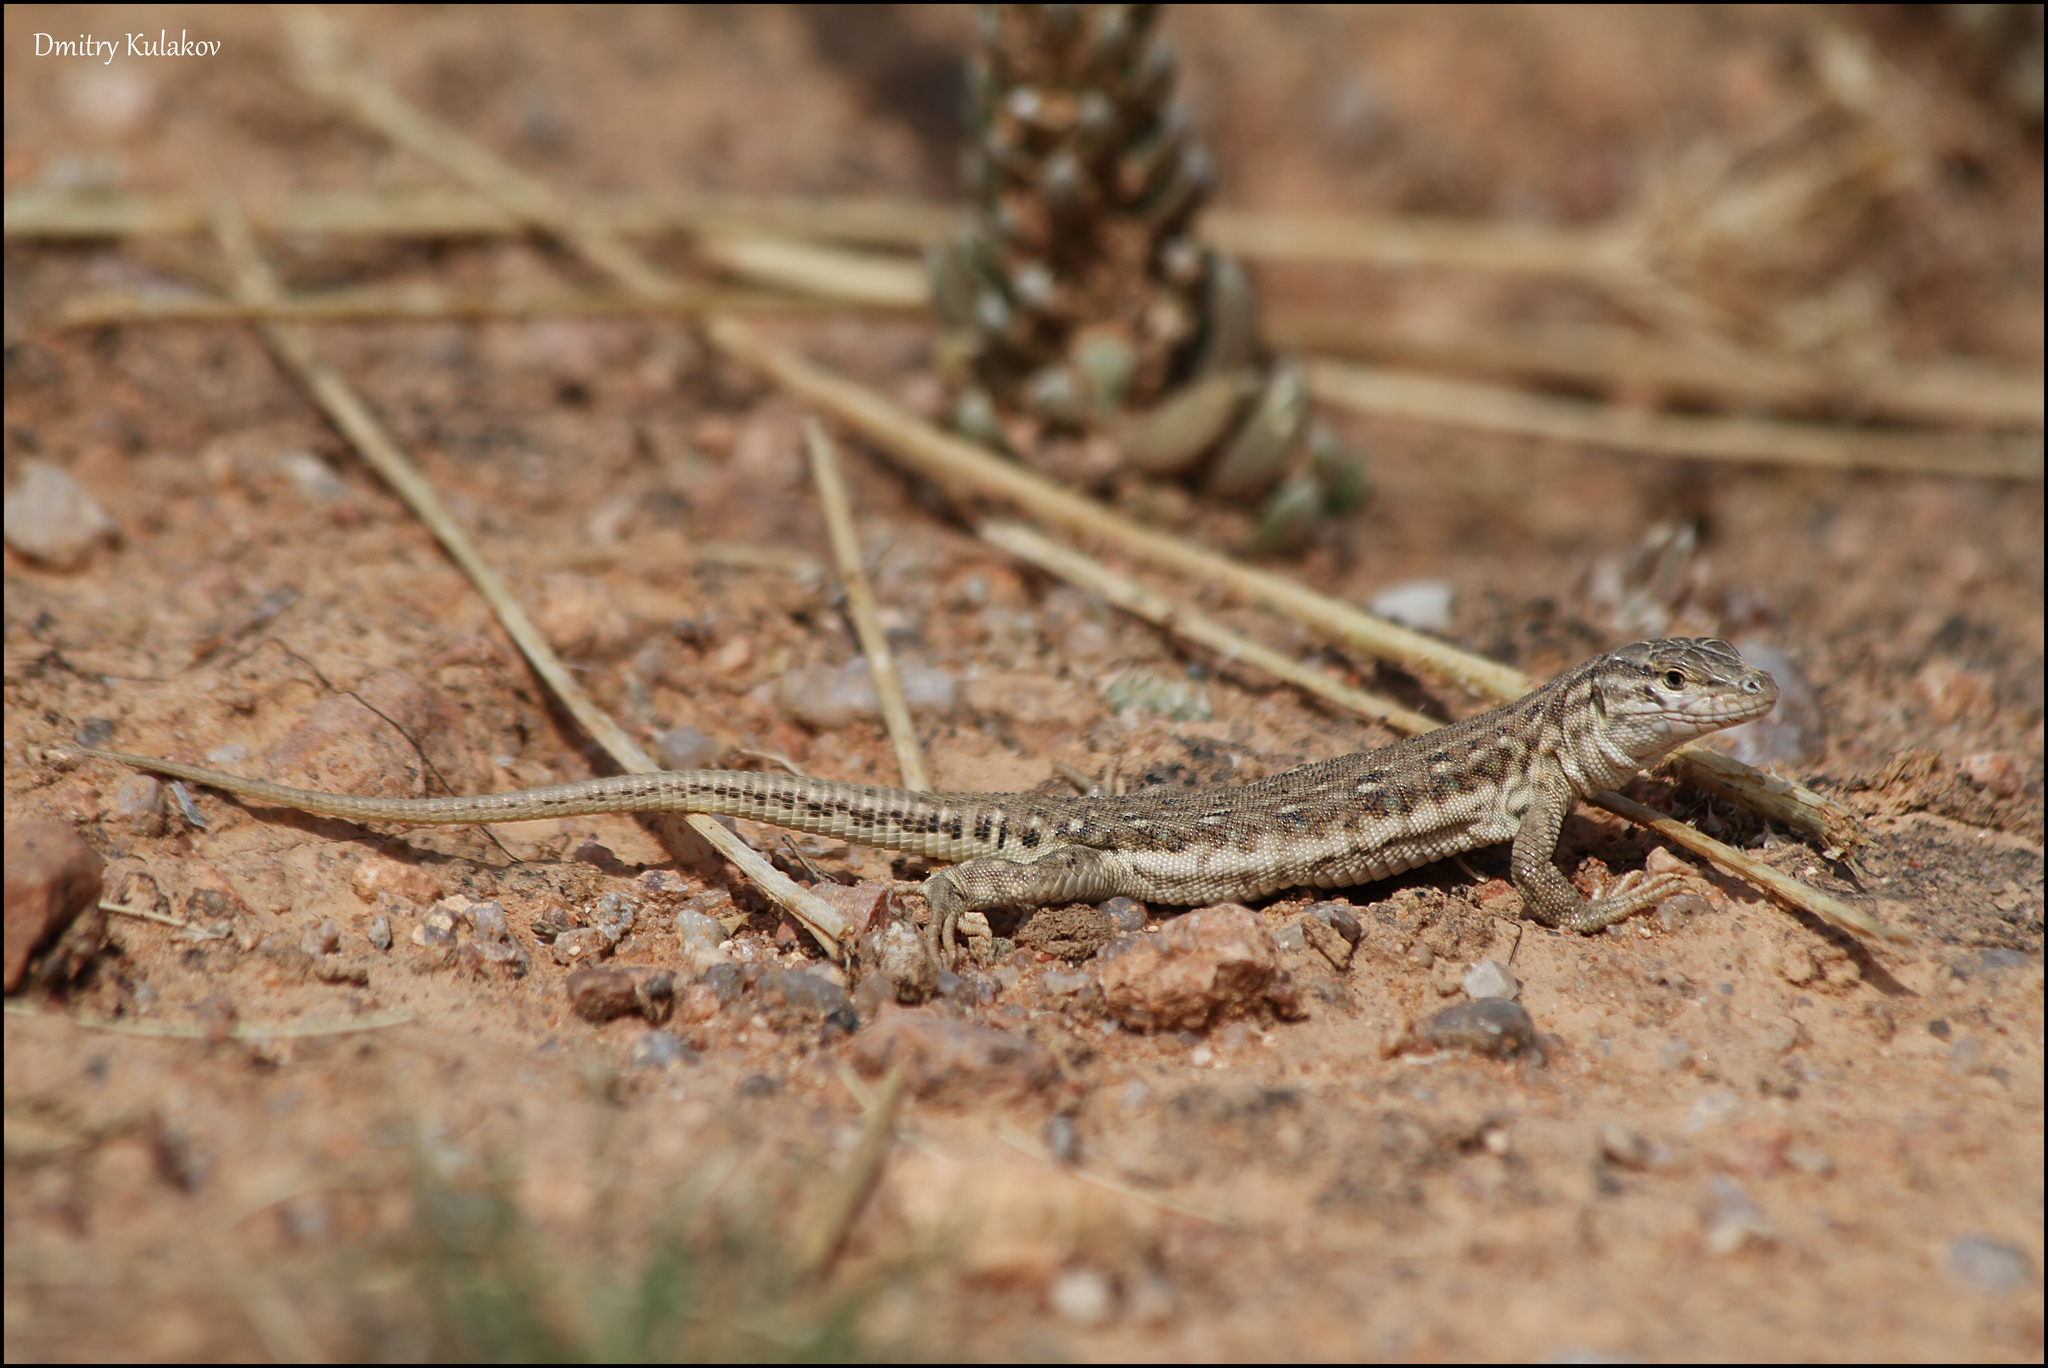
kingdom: Animalia
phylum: Chordata
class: Squamata
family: Lacertidae
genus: Eremias
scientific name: Eremias stummeri
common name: Stummer’s racerunner
